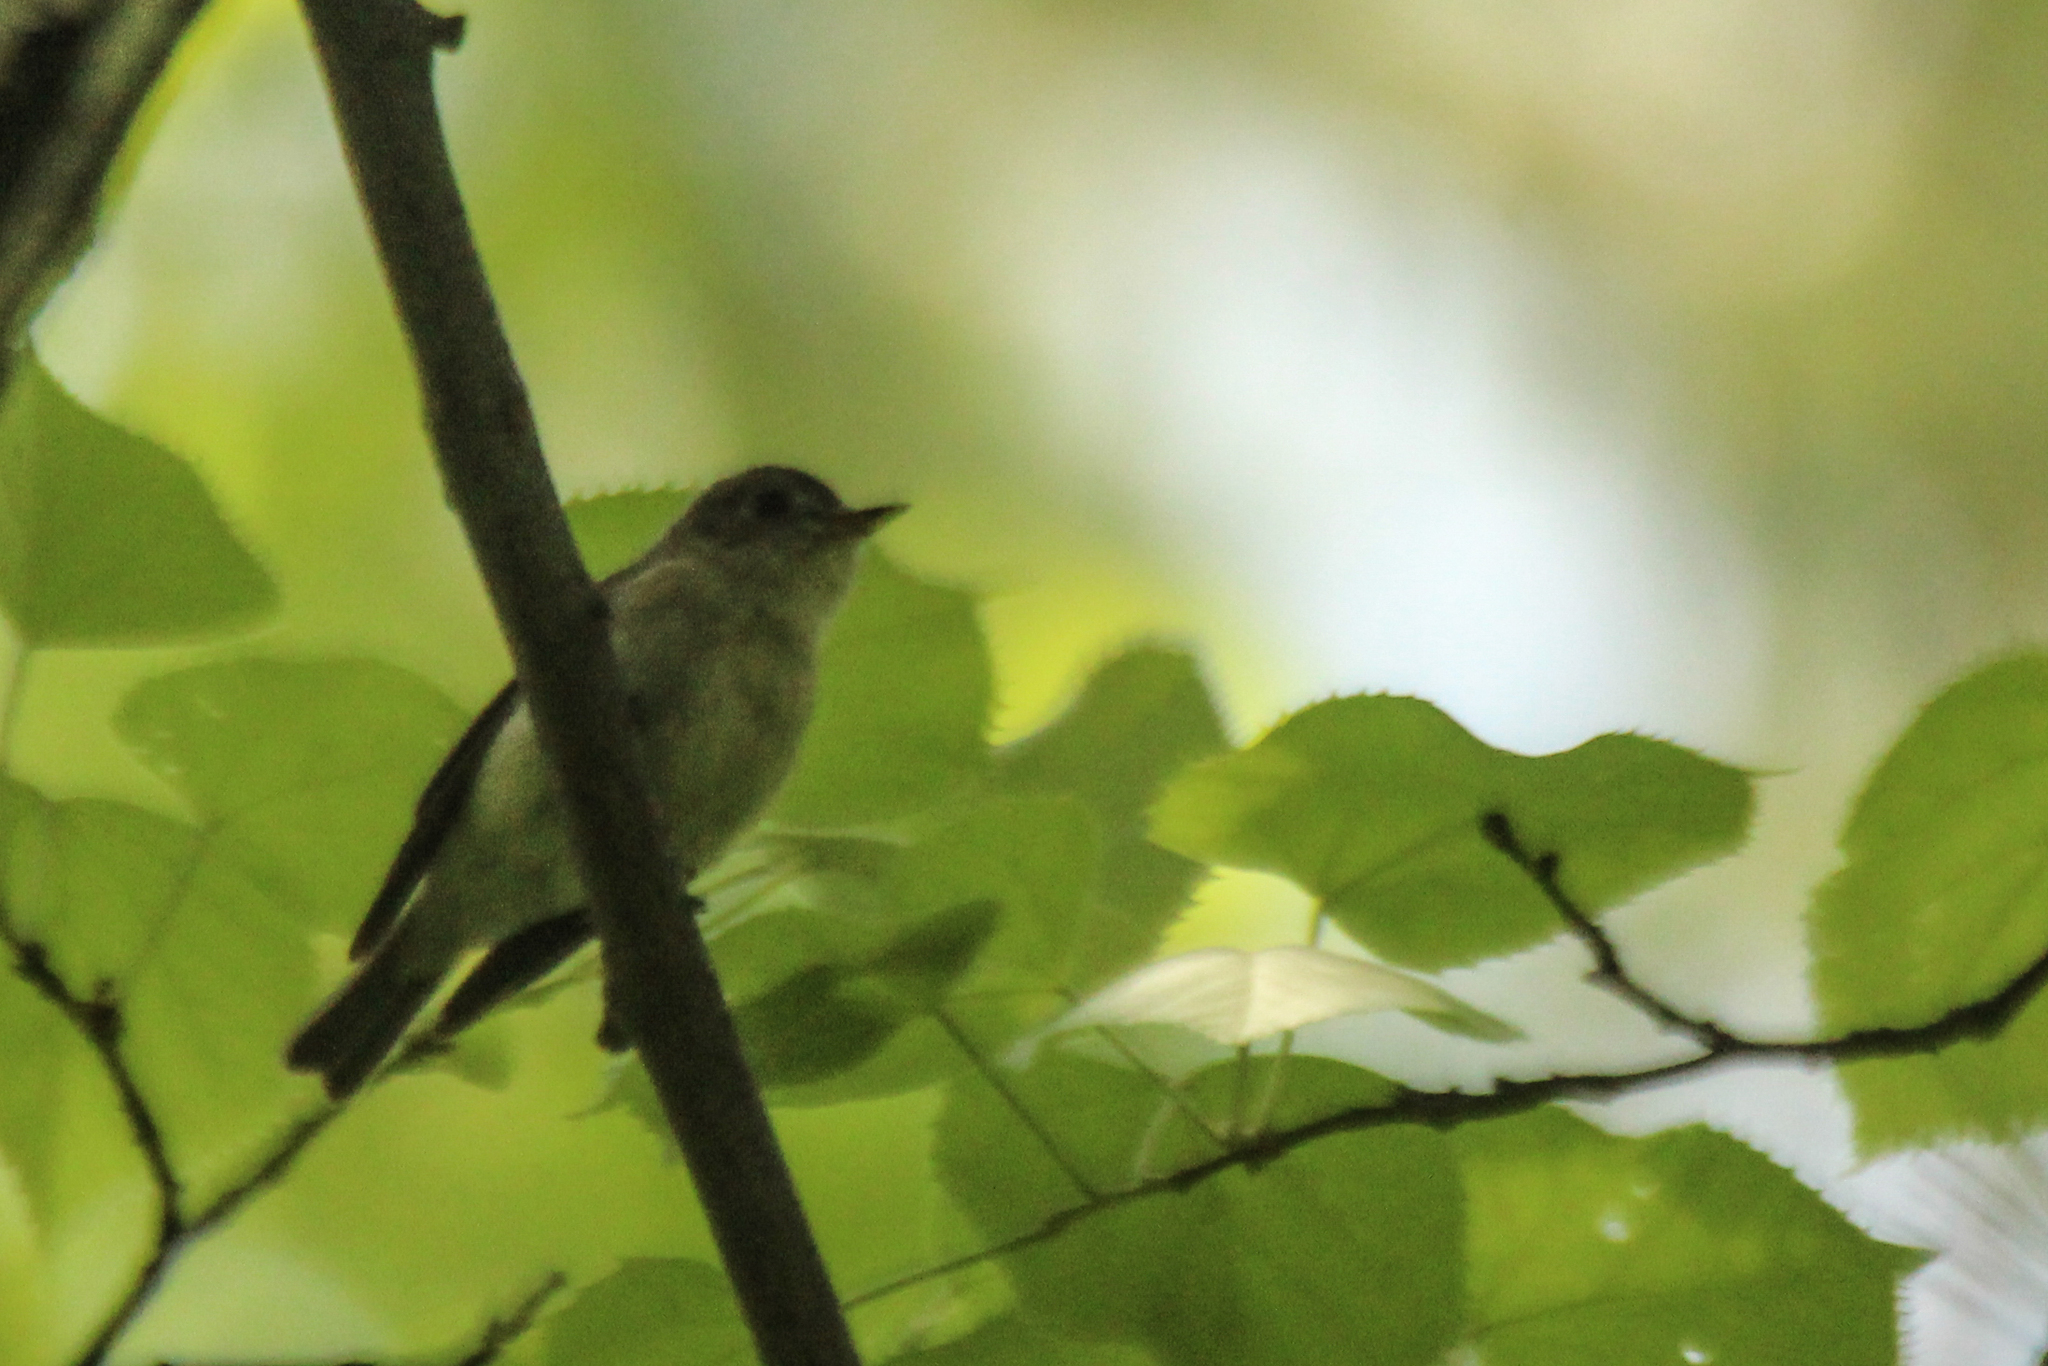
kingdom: Animalia
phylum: Chordata
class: Aves
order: Passeriformes
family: Muscicapidae
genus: Muscicapa
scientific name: Muscicapa latirostris
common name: Asian brown flycatcher
